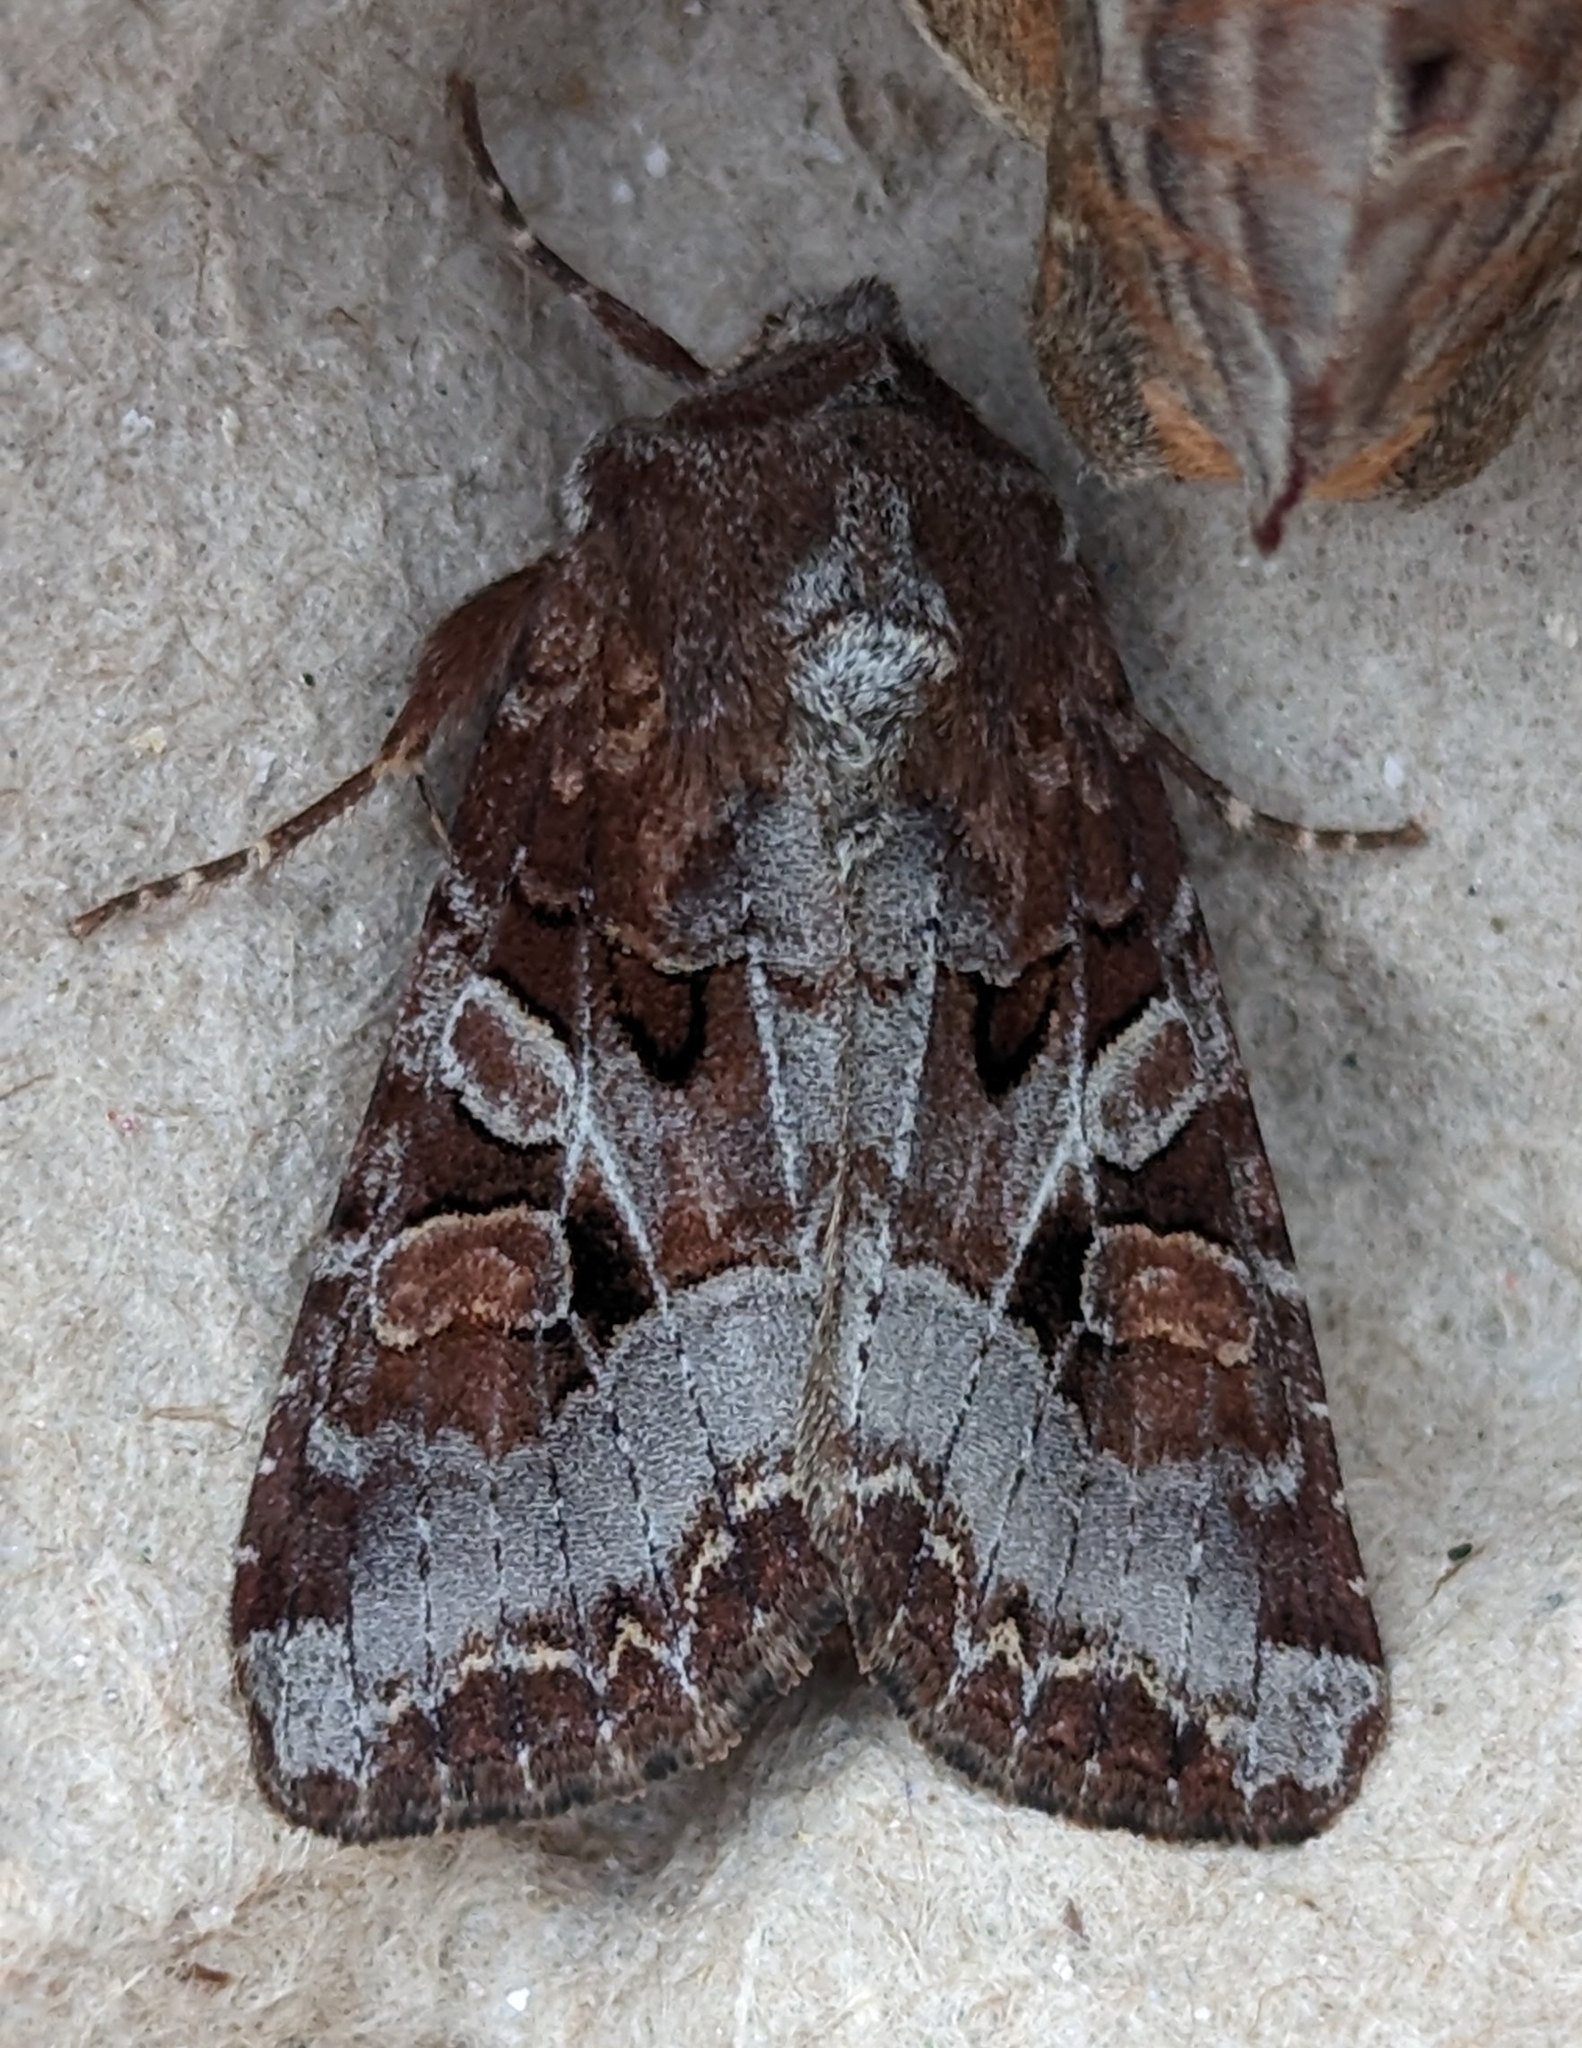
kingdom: Animalia
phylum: Arthropoda
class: Insecta
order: Lepidoptera
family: Noctuidae
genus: Trichordestra
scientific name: Trichordestra tacoma
